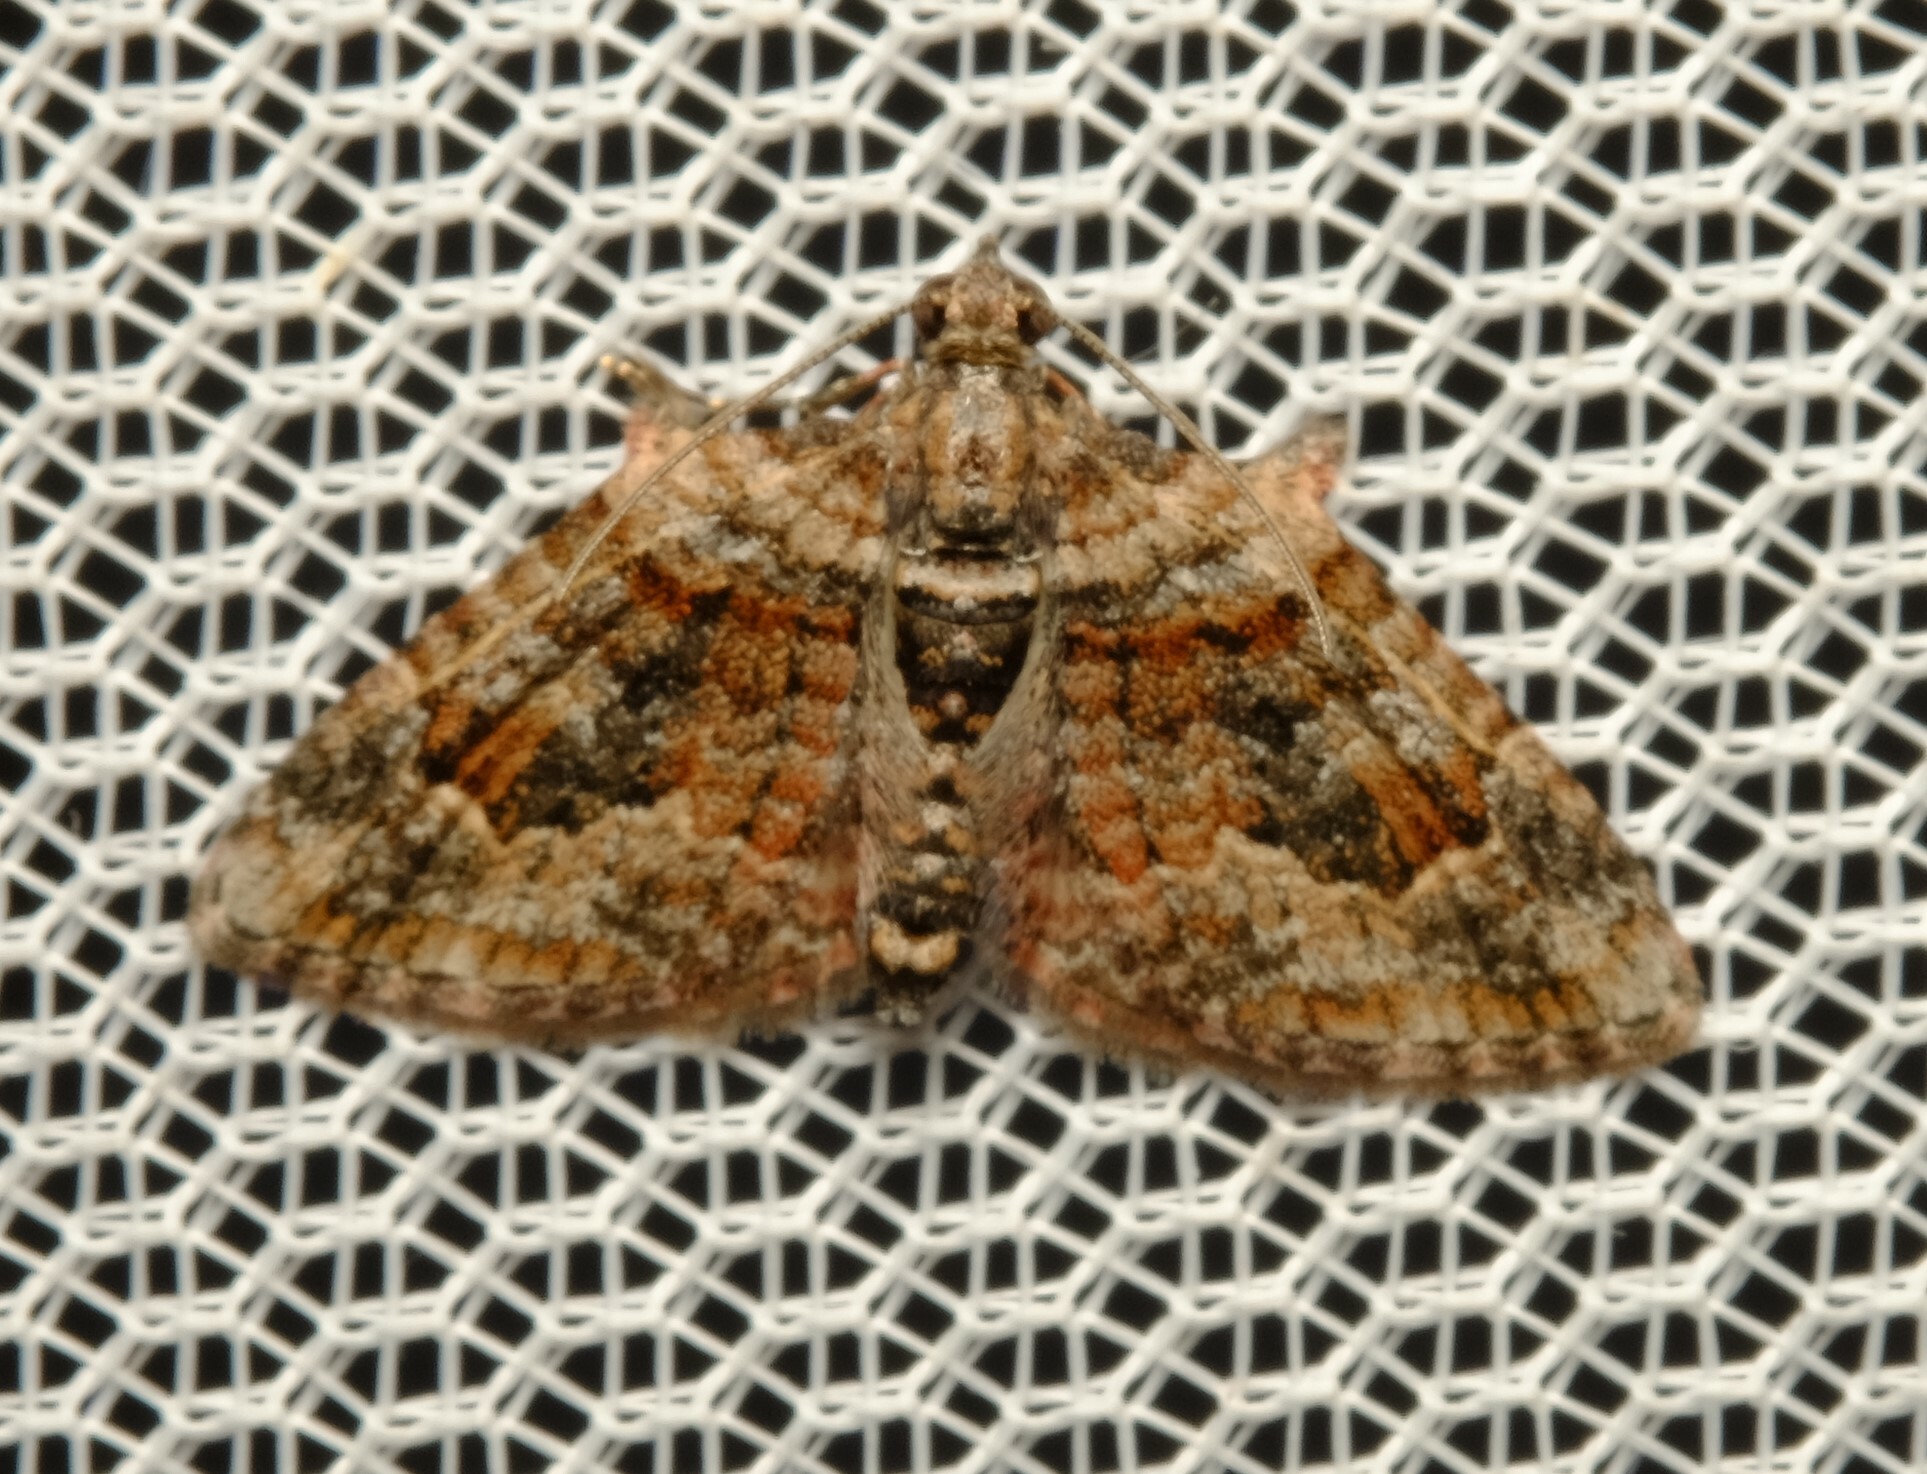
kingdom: Animalia
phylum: Arthropoda
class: Insecta
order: Lepidoptera
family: Geometridae
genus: Phrissogonus
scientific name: Phrissogonus laticostata
